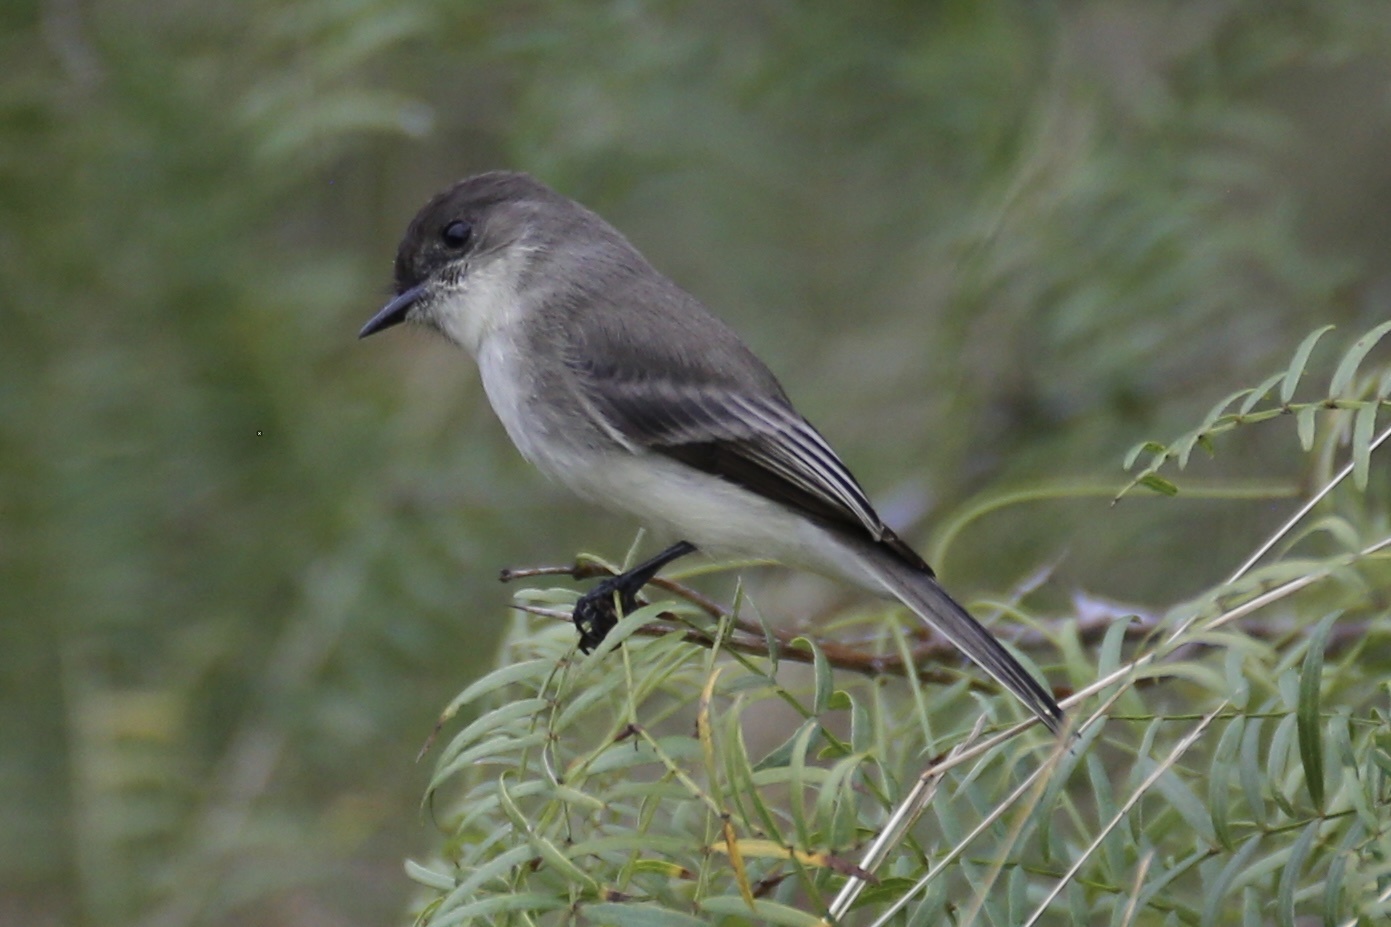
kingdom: Animalia
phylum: Chordata
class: Aves
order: Passeriformes
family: Tyrannidae
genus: Sayornis
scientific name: Sayornis phoebe
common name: Eastern phoebe
